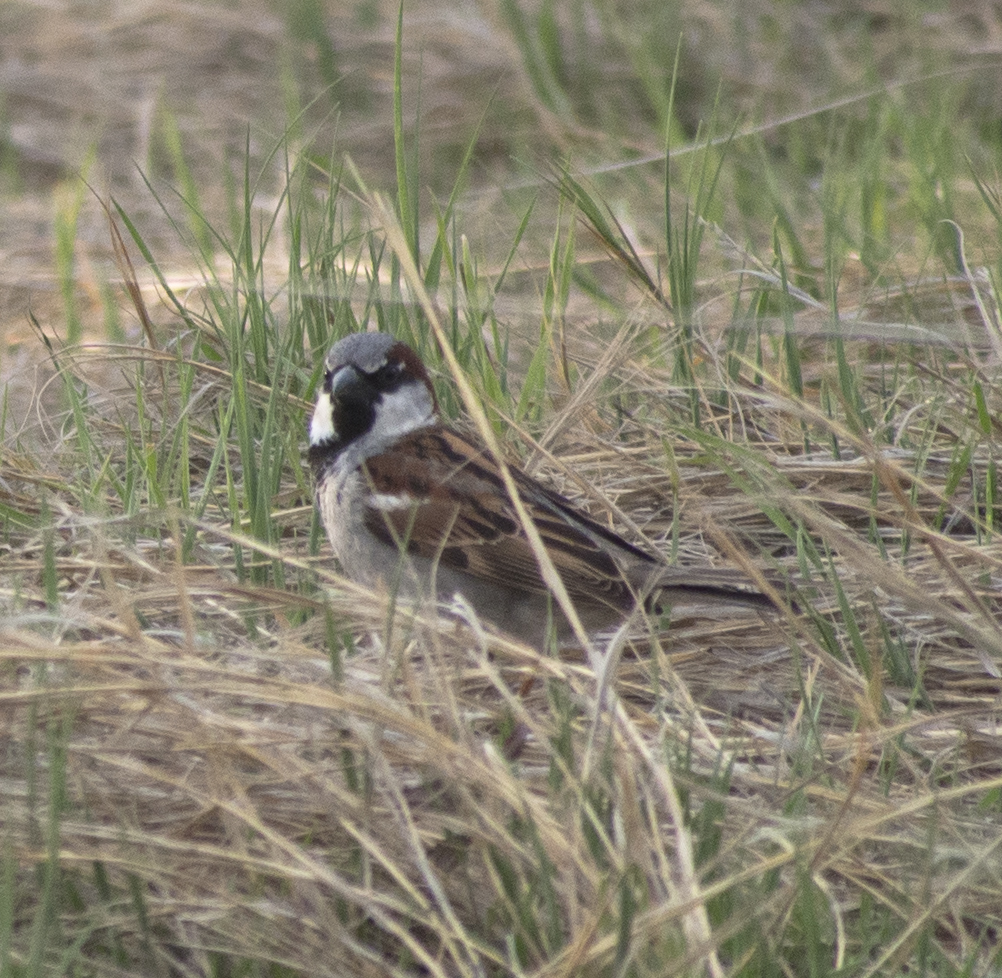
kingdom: Animalia
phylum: Chordata
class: Aves
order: Passeriformes
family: Passeridae
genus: Passer
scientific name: Passer domesticus
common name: House sparrow
